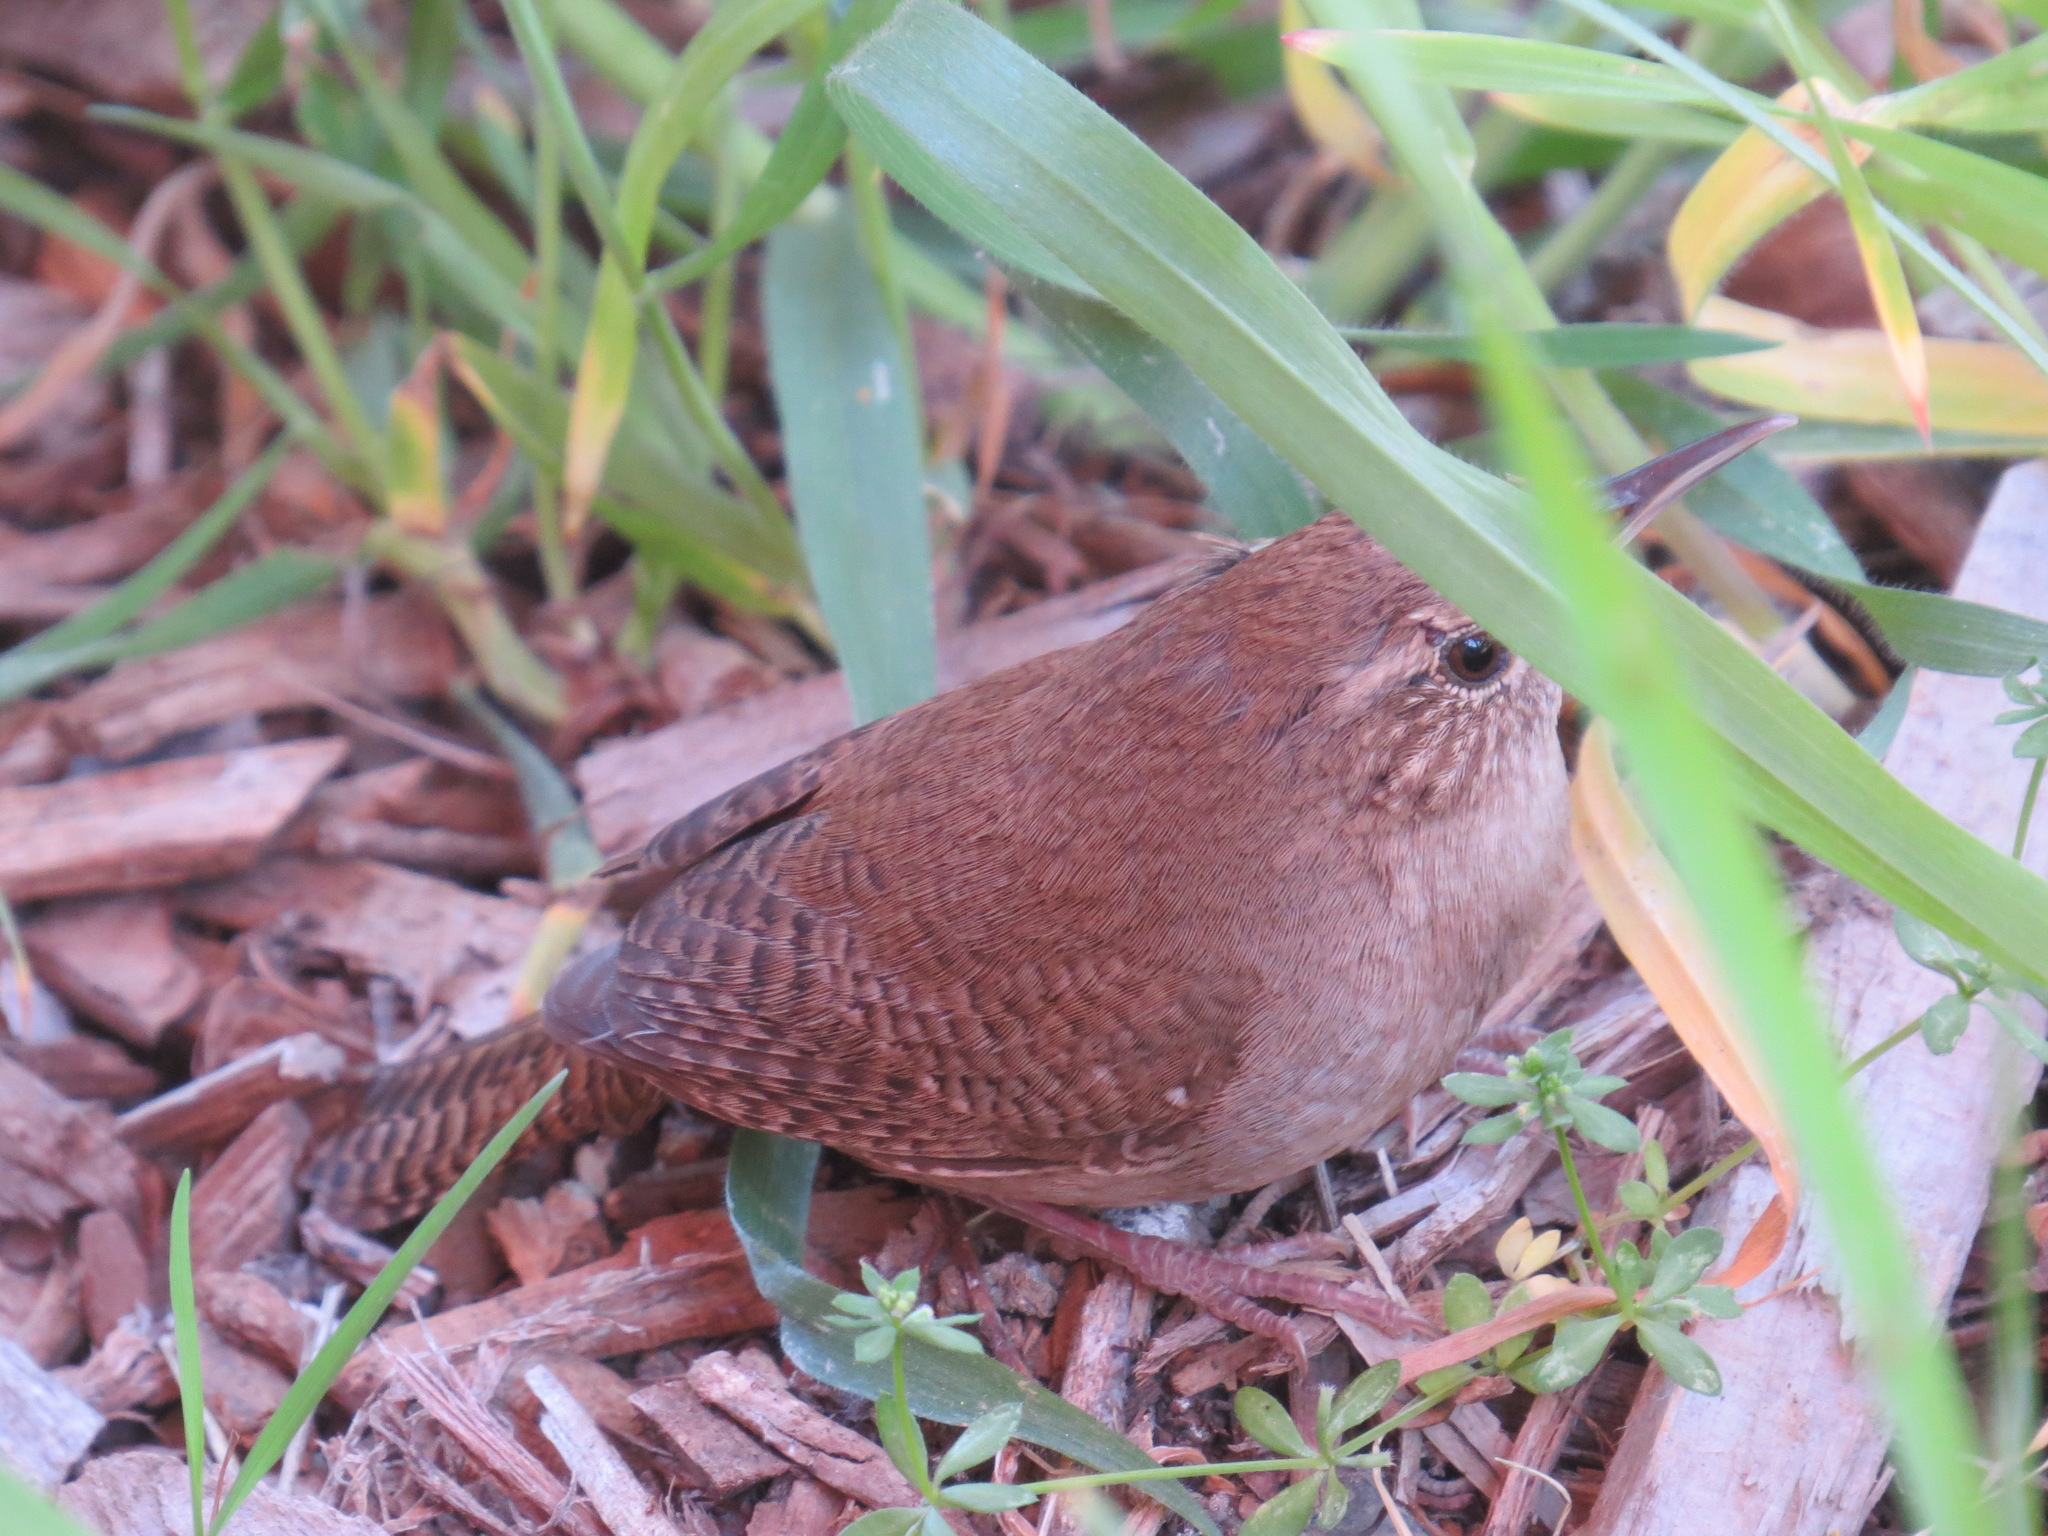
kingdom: Animalia
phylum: Chordata
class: Aves
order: Passeriformes
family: Troglodytidae
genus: Troglodytes
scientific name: Troglodytes aedon
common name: House wren
